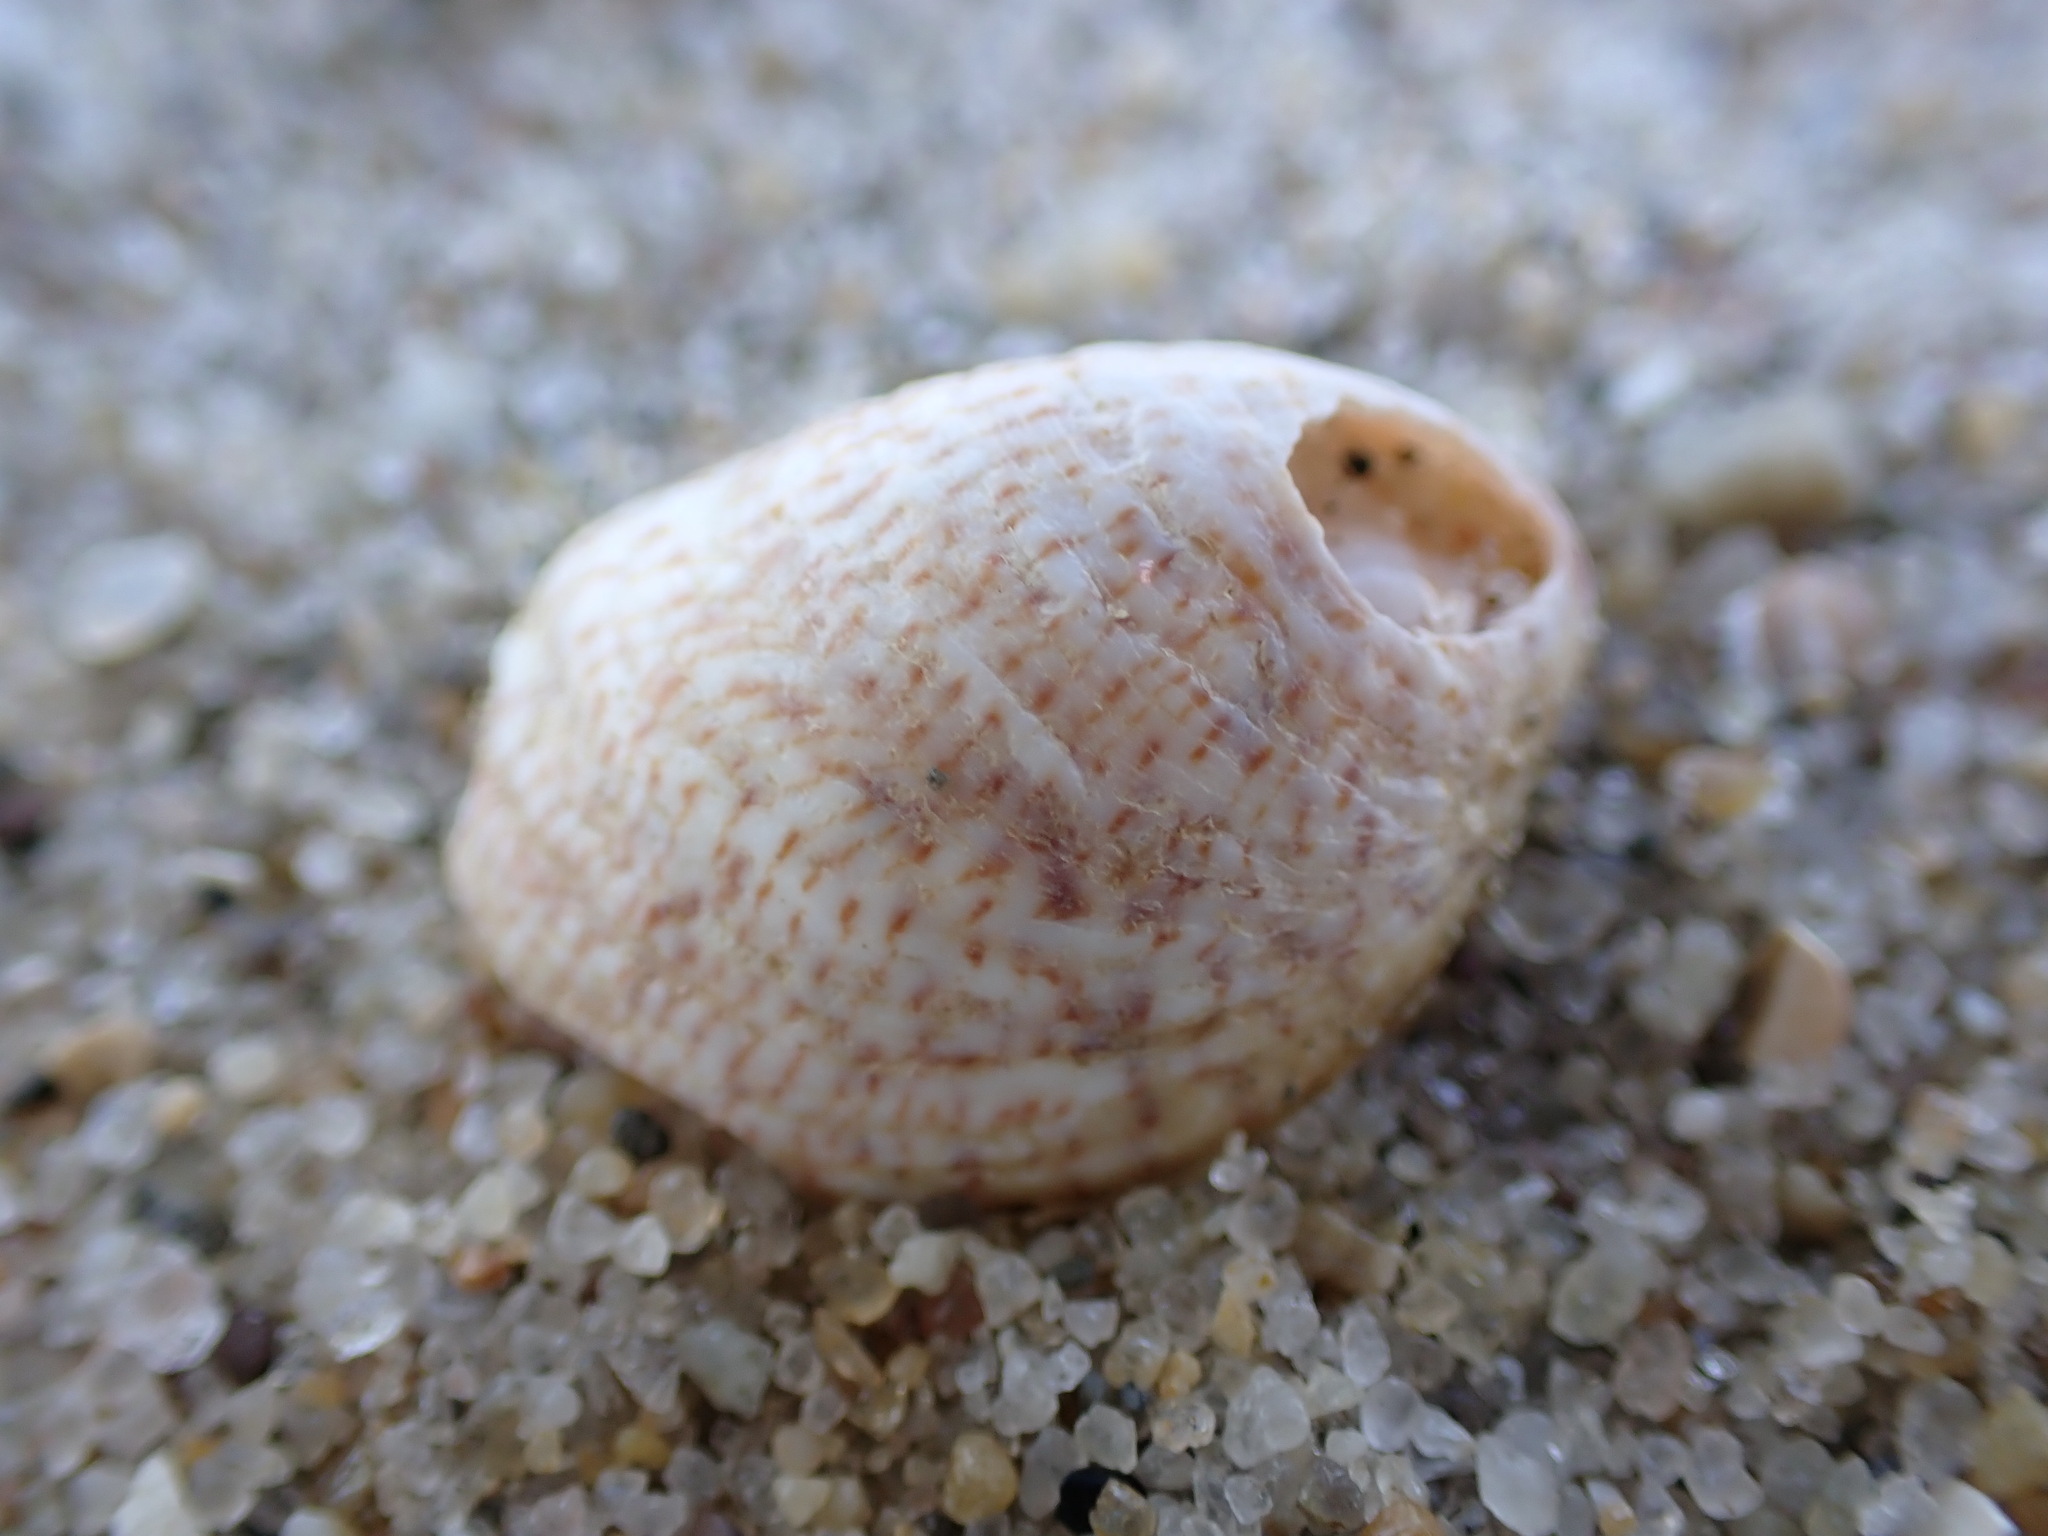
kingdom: Animalia
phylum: Mollusca
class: Gastropoda
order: Littorinimorpha
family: Calyptraeidae
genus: Crepidula
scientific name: Crepidula fornicata
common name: Slipper limpet
